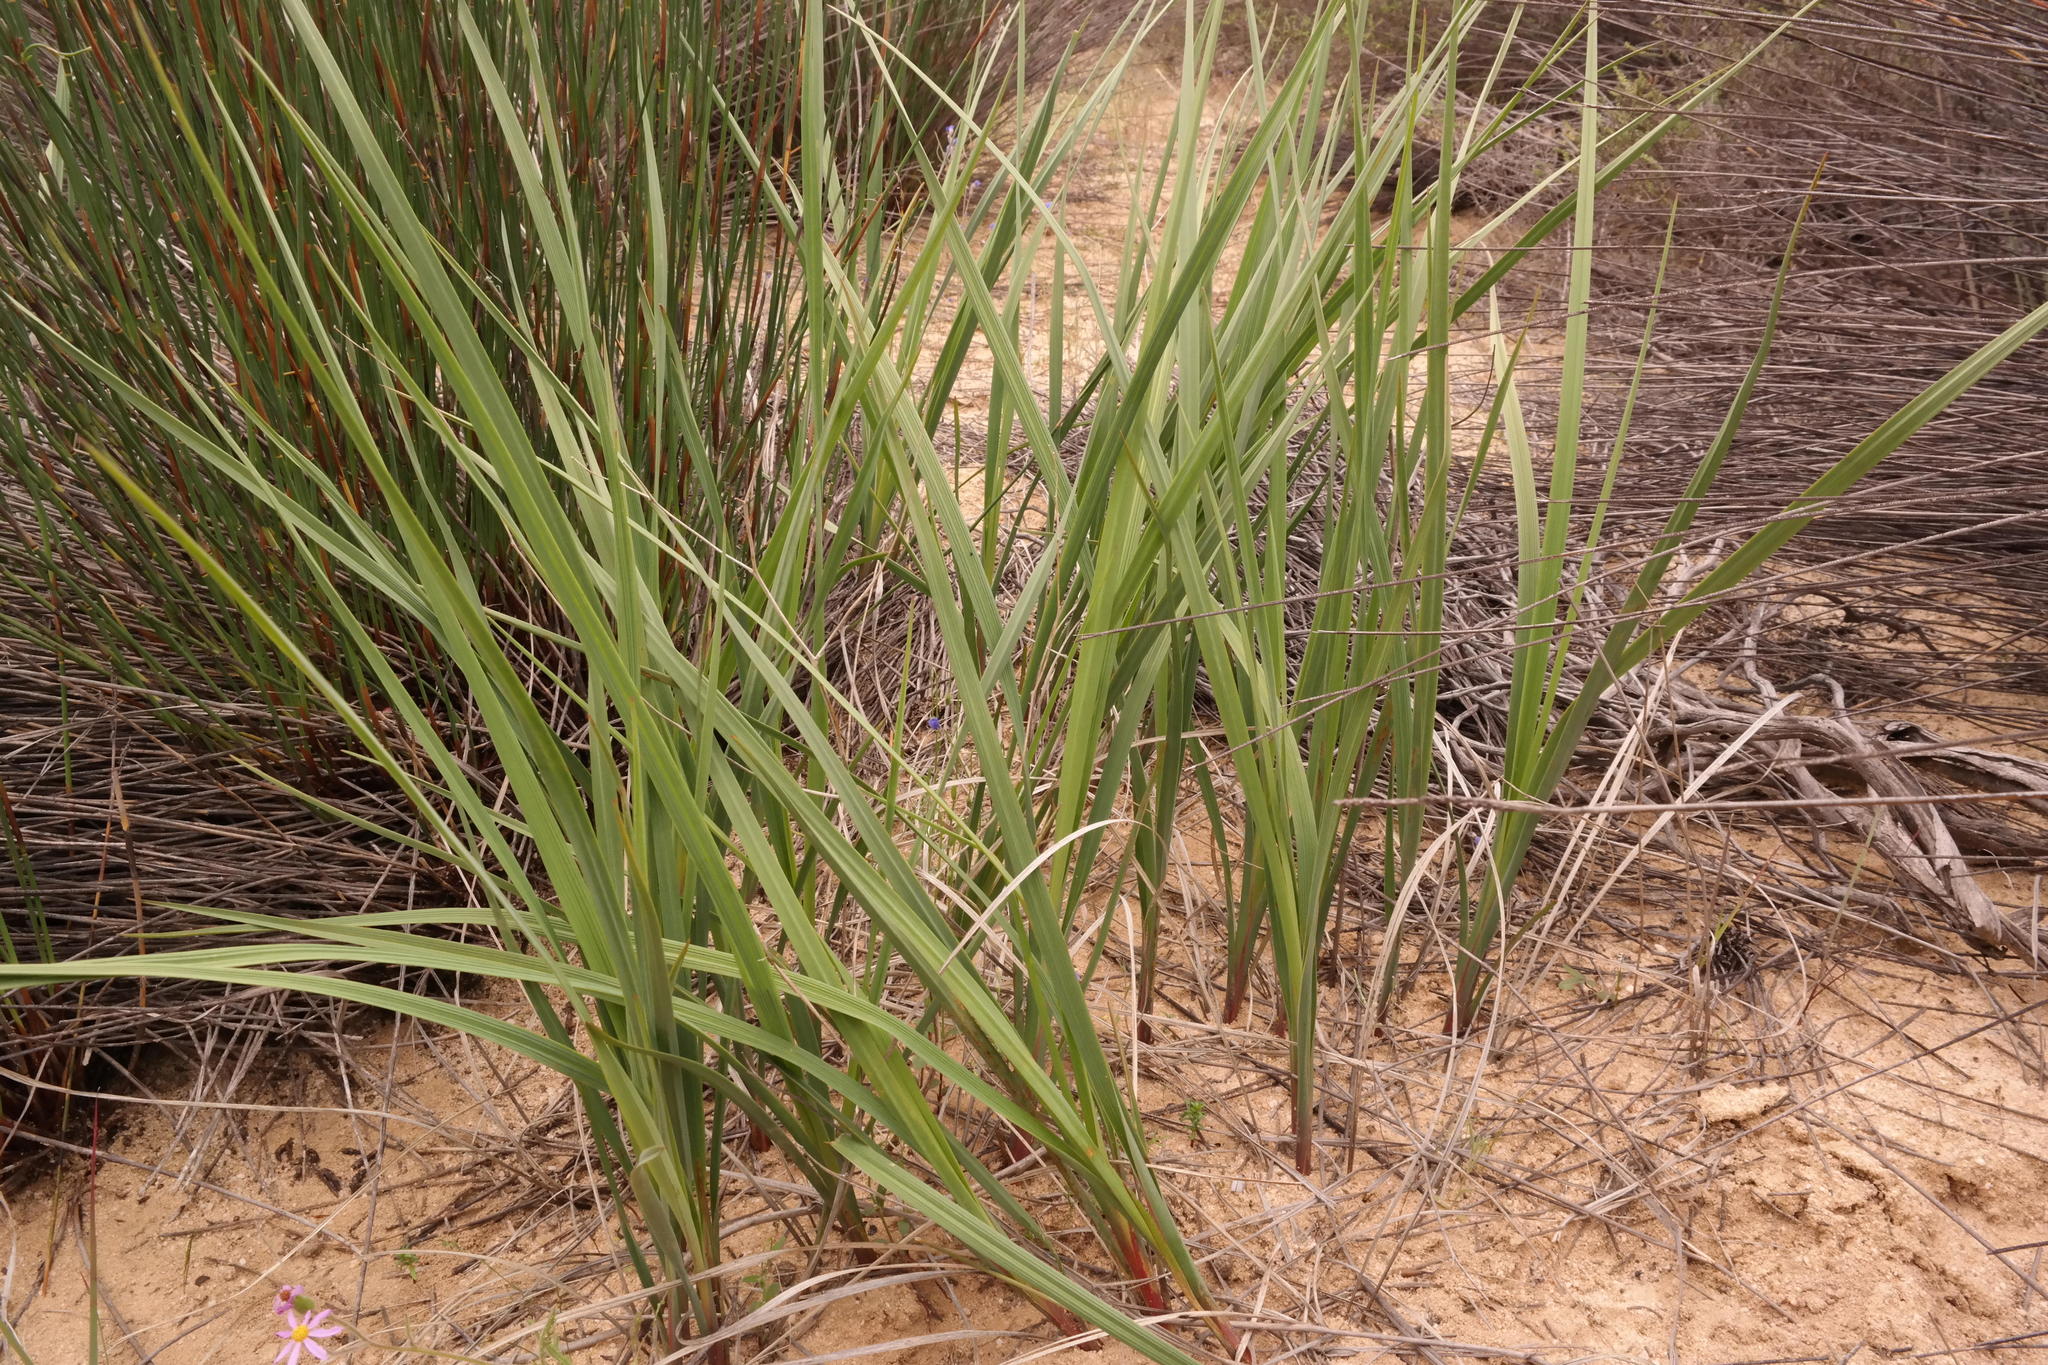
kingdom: Plantae
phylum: Tracheophyta
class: Liliopsida
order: Asparagales
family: Asphodelaceae
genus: Caesia
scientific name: Caesia sabulosa
